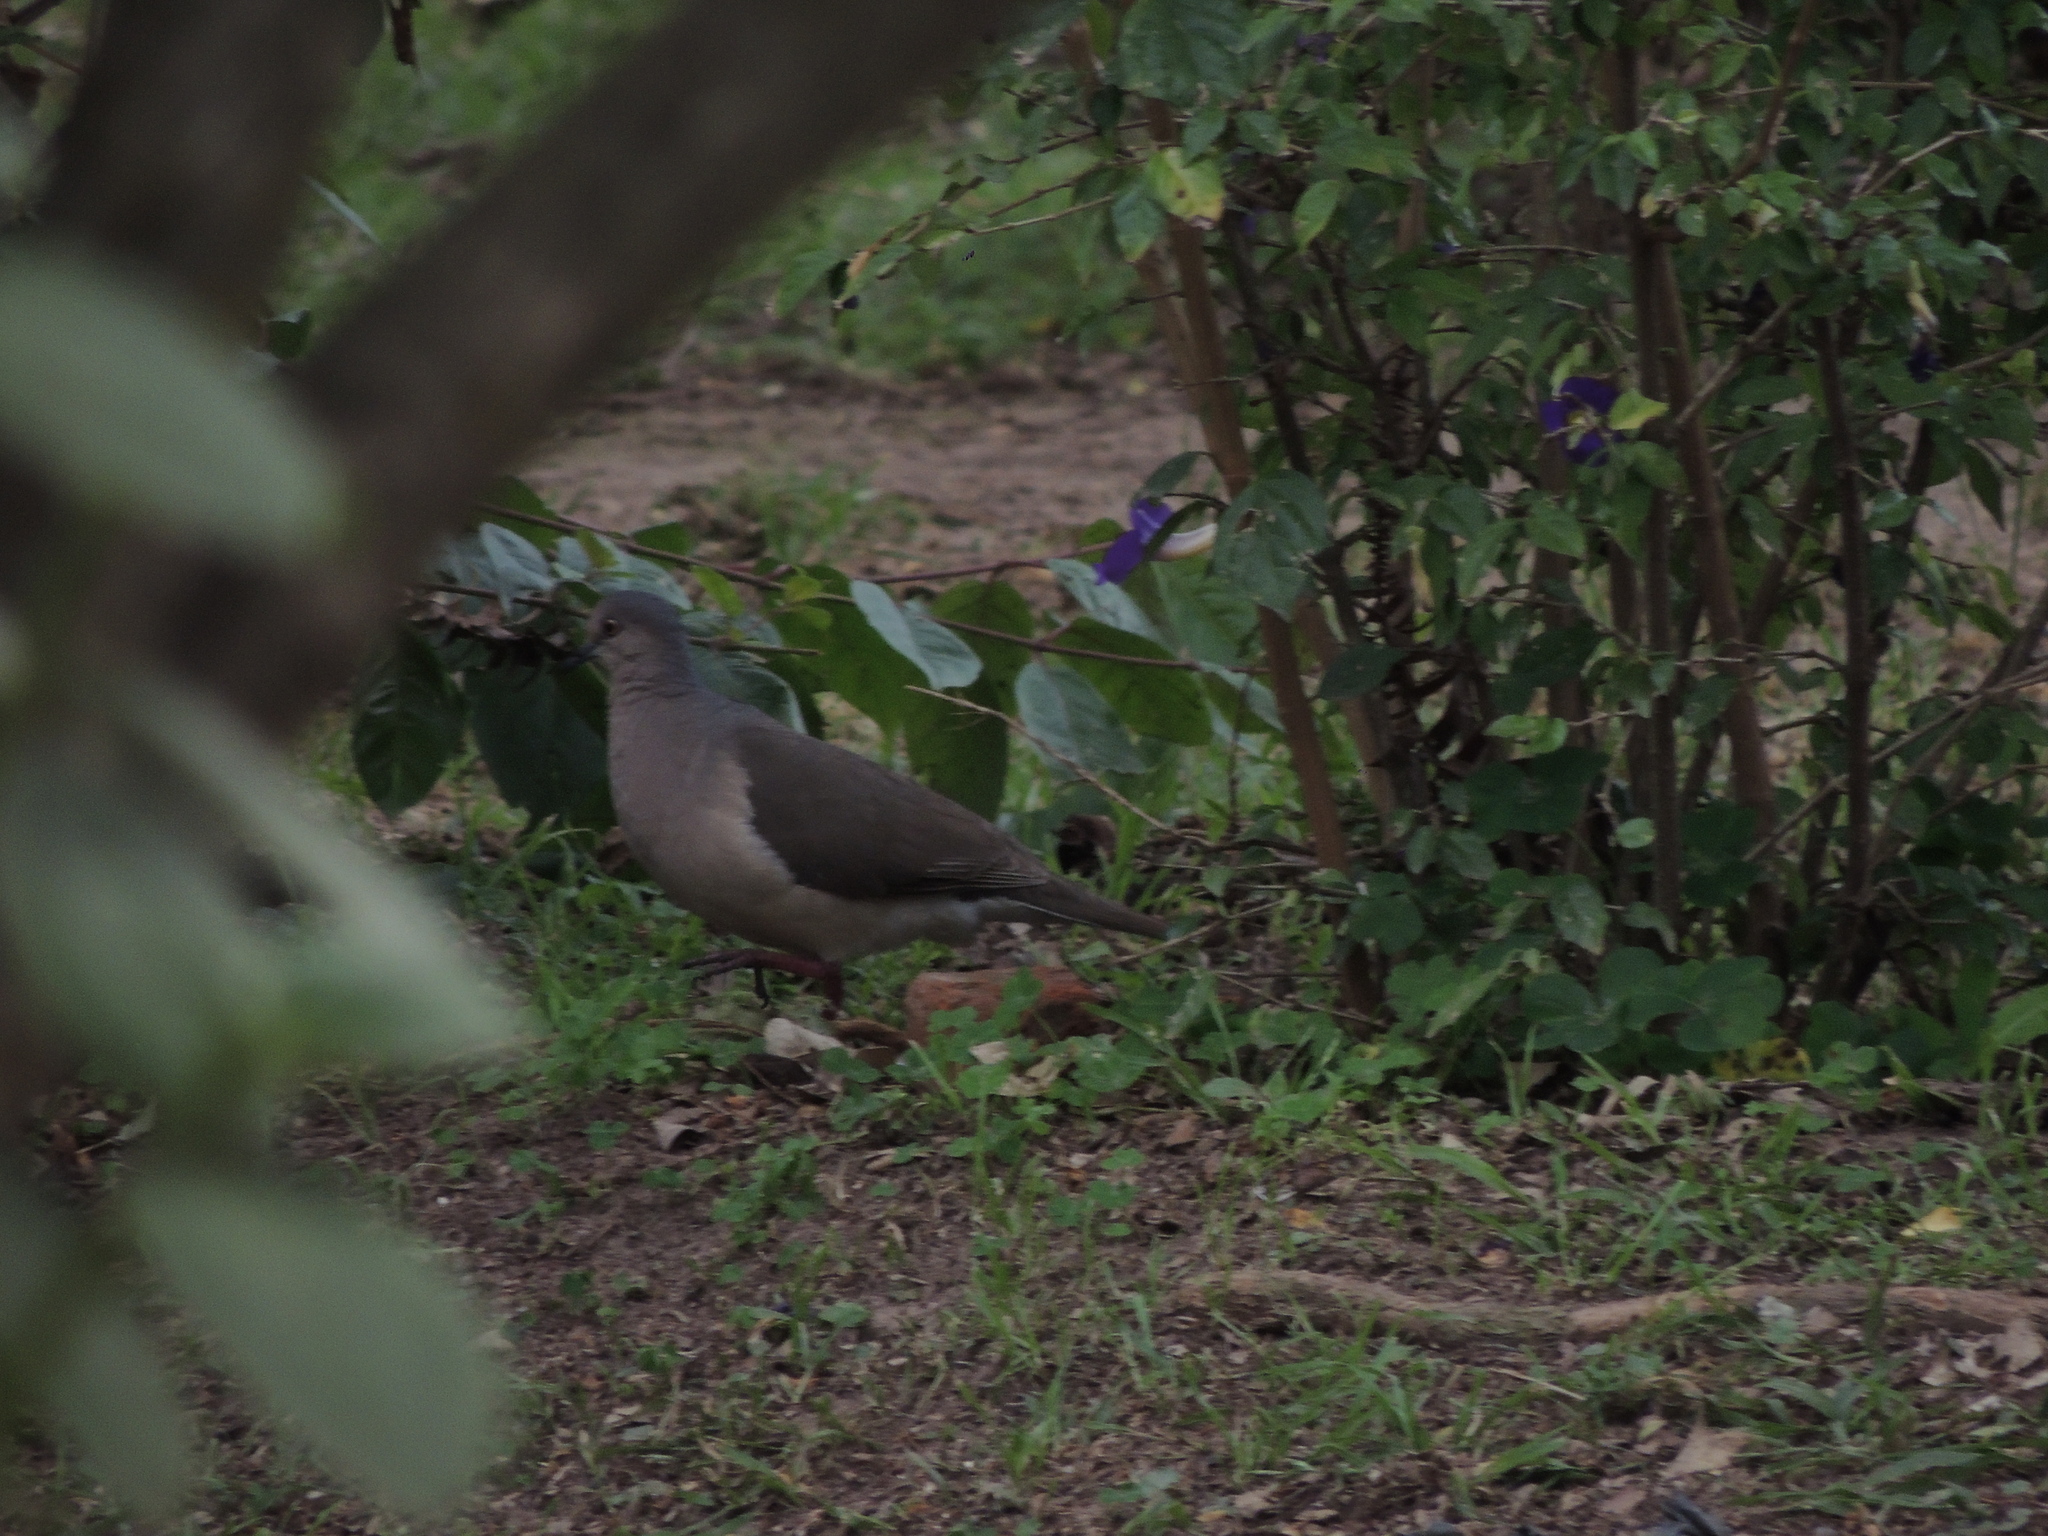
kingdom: Animalia
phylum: Chordata
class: Aves
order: Columbiformes
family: Columbidae
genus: Leptotila
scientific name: Leptotila verreauxi
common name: White-tipped dove
